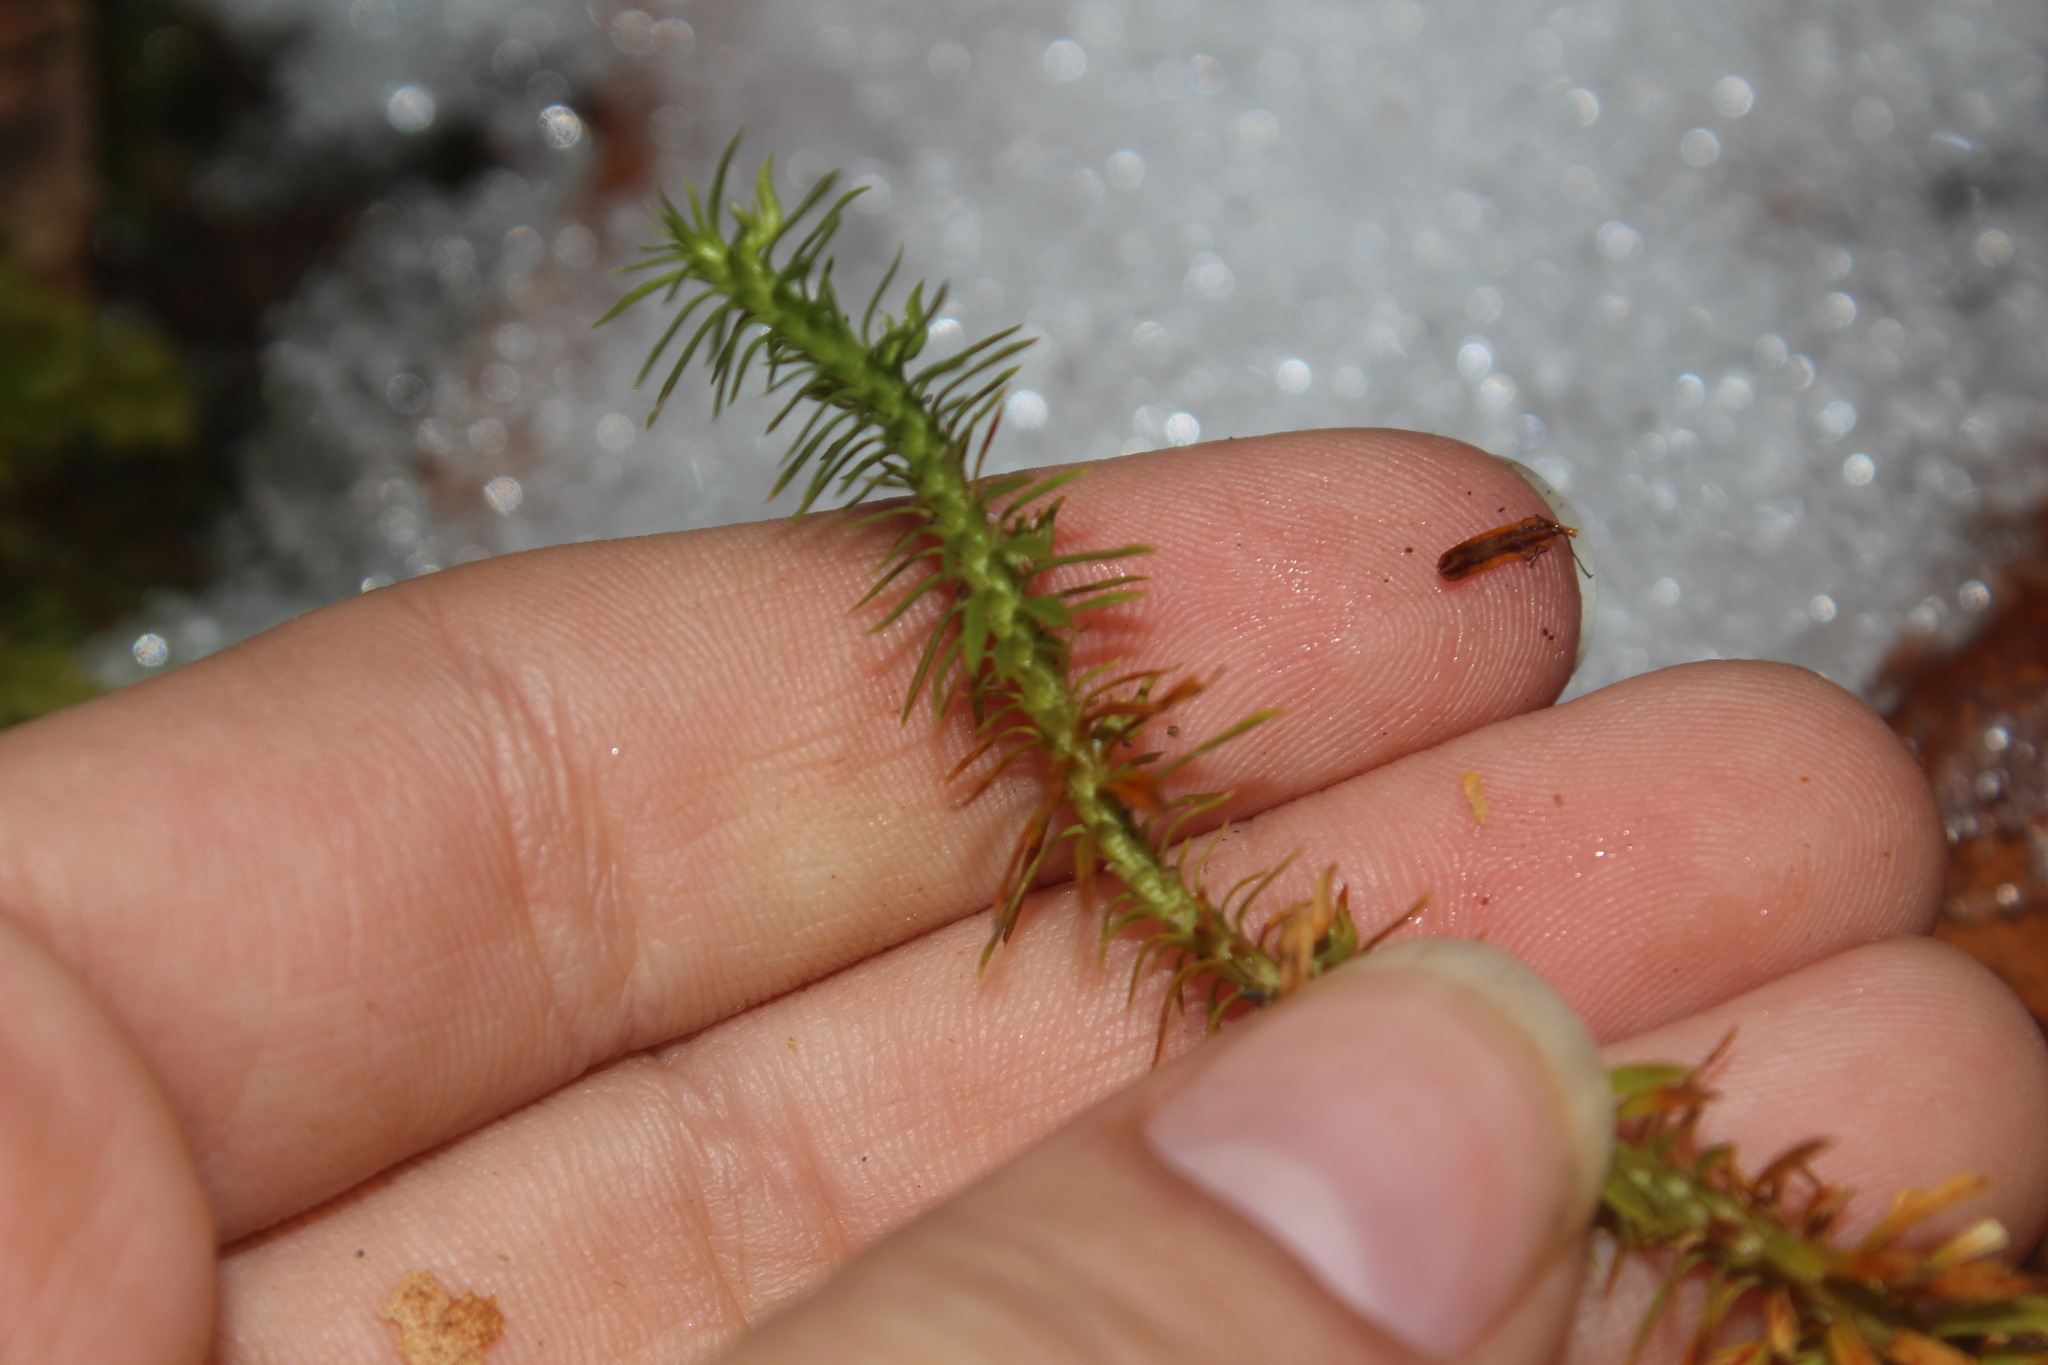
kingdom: Plantae
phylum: Tracheophyta
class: Lycopodiopsida
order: Lycopodiales
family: Lycopodiaceae
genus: Huperzia
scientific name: Huperzia lucidula
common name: Shining clubmoss
